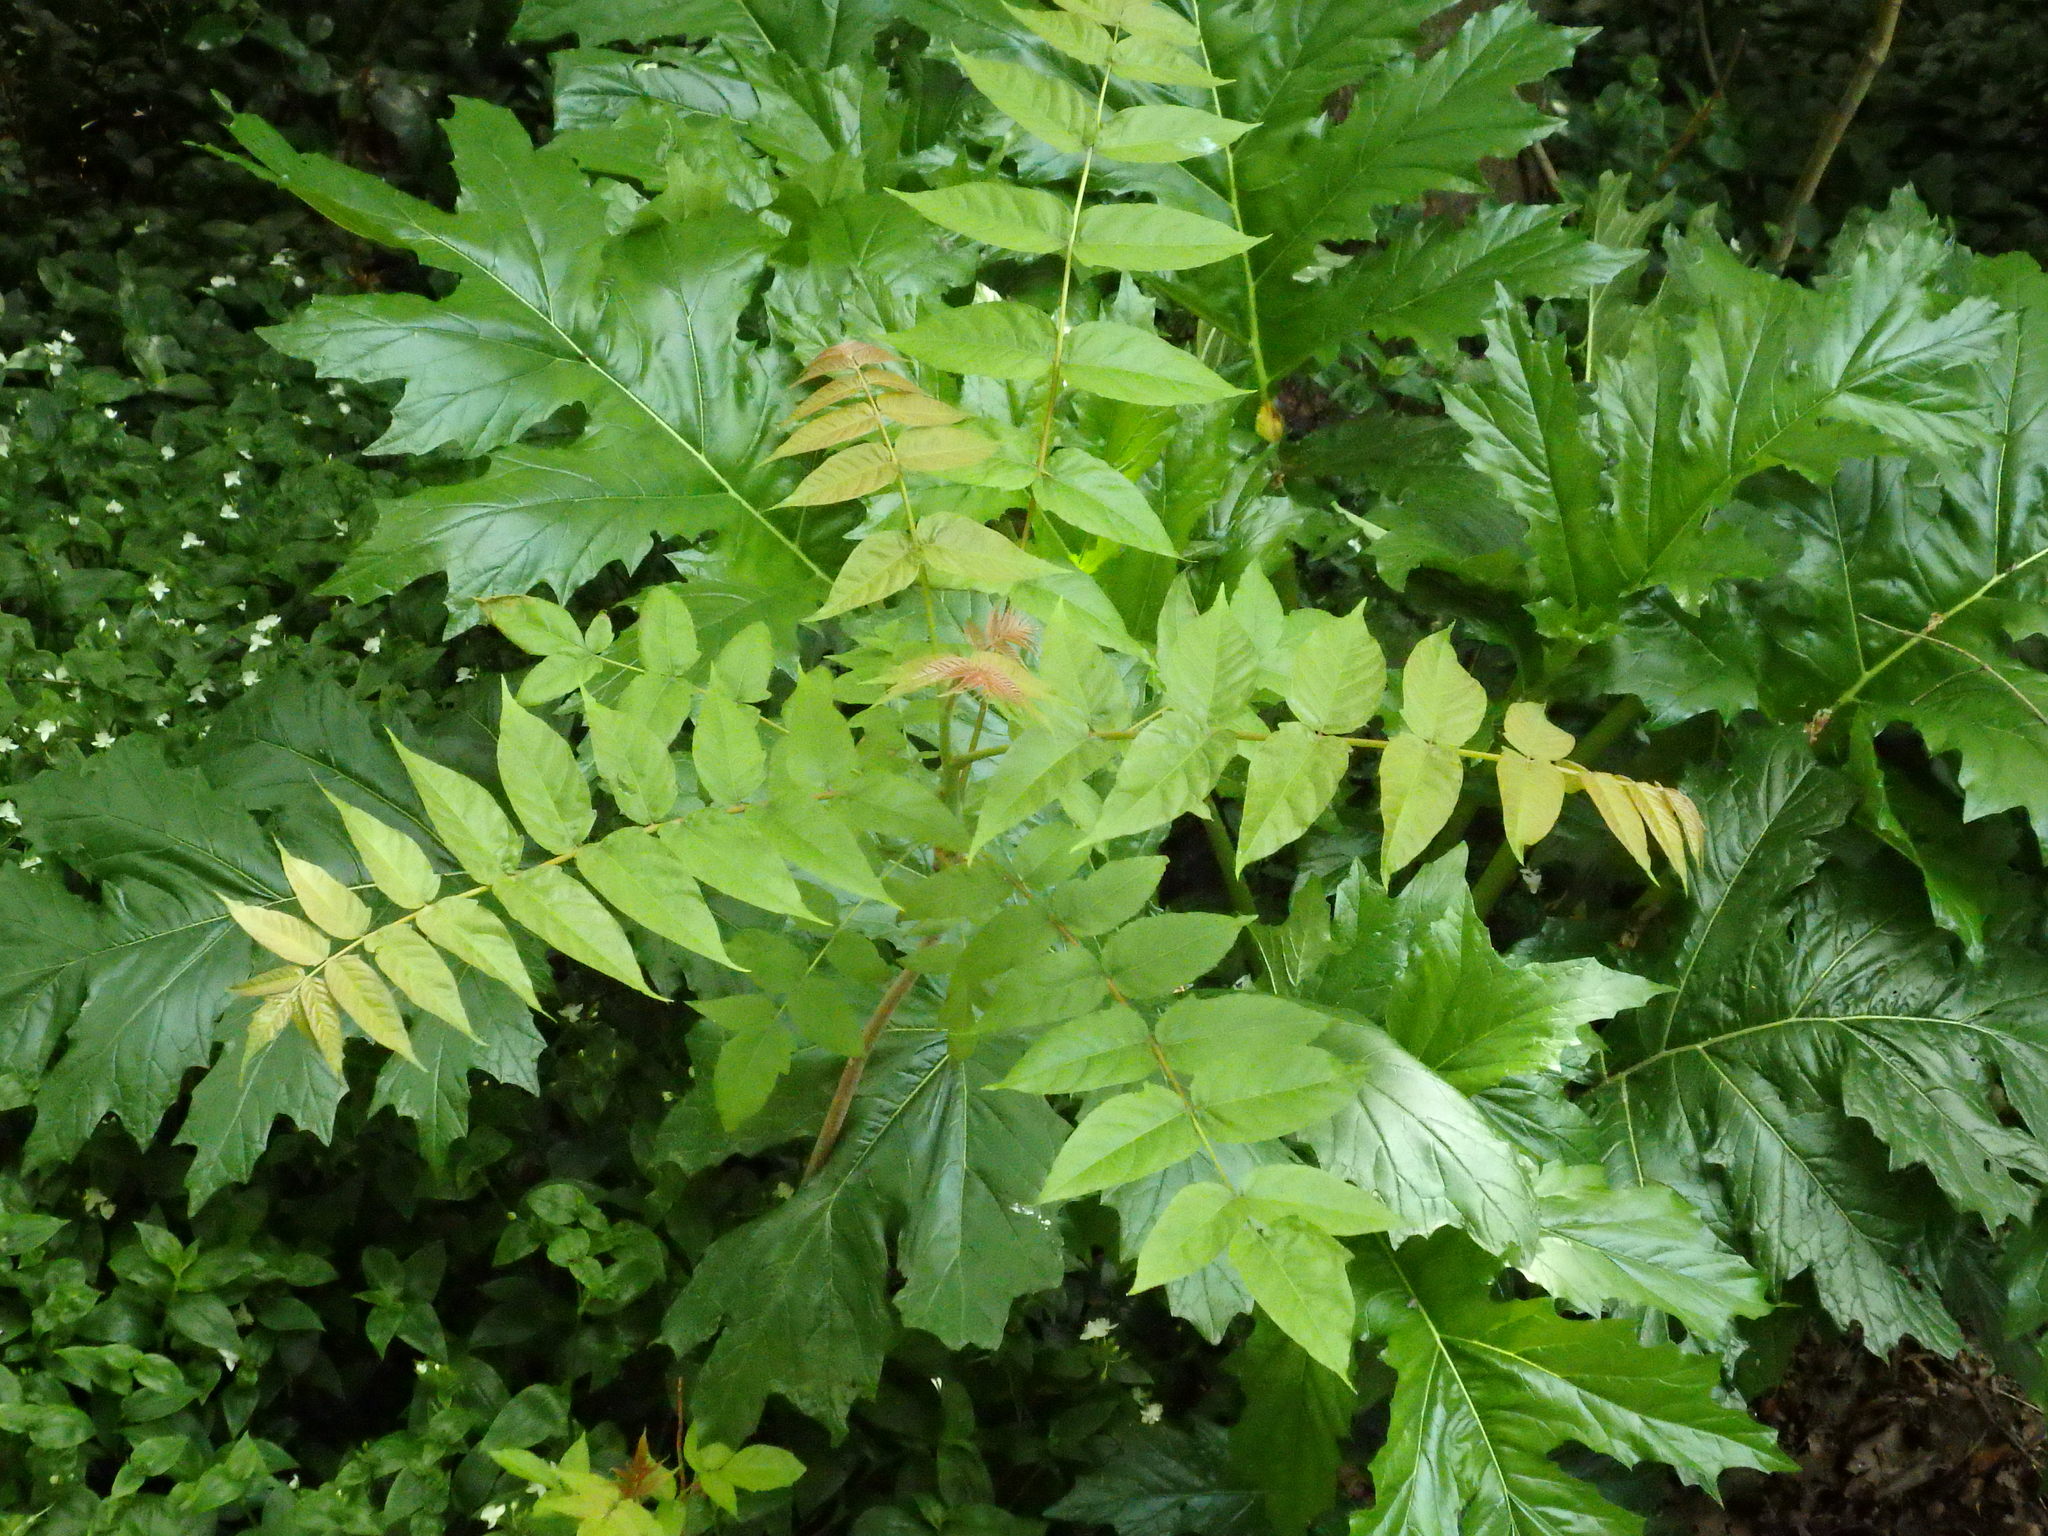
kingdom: Plantae
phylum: Tracheophyta
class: Magnoliopsida
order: Sapindales
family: Simaroubaceae
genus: Ailanthus
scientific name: Ailanthus altissima
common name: Tree-of-heaven
